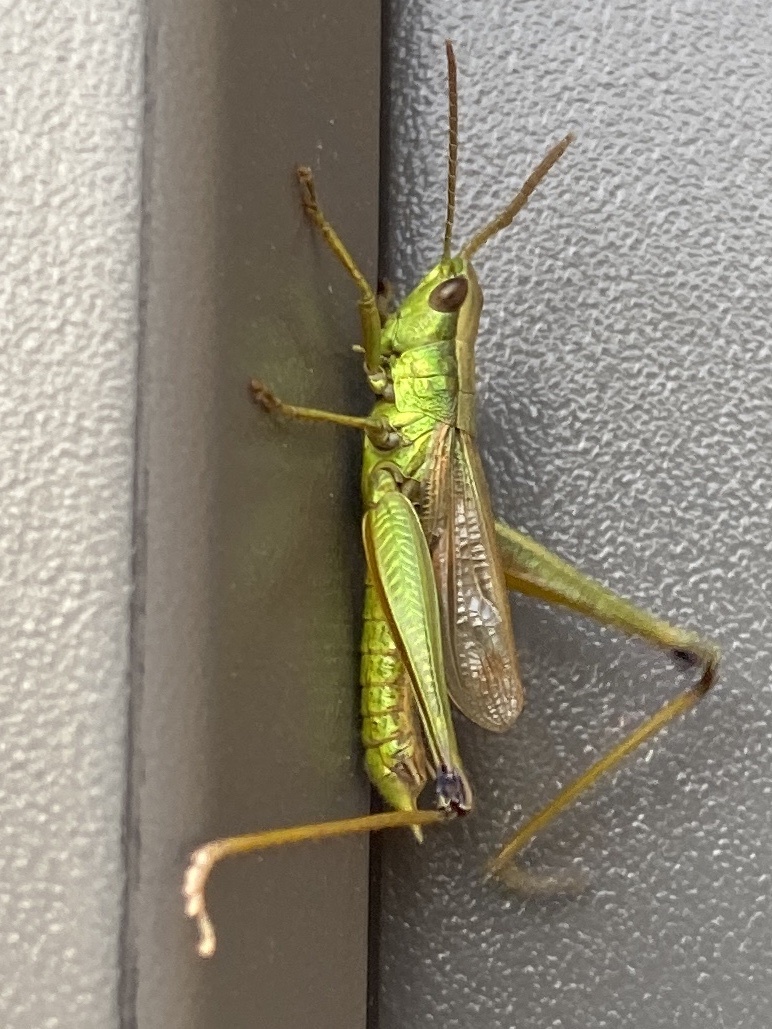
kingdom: Animalia
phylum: Arthropoda
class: Insecta
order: Orthoptera
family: Acrididae
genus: Chrysochraon
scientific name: Chrysochraon dispar
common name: Large gold grasshopper
